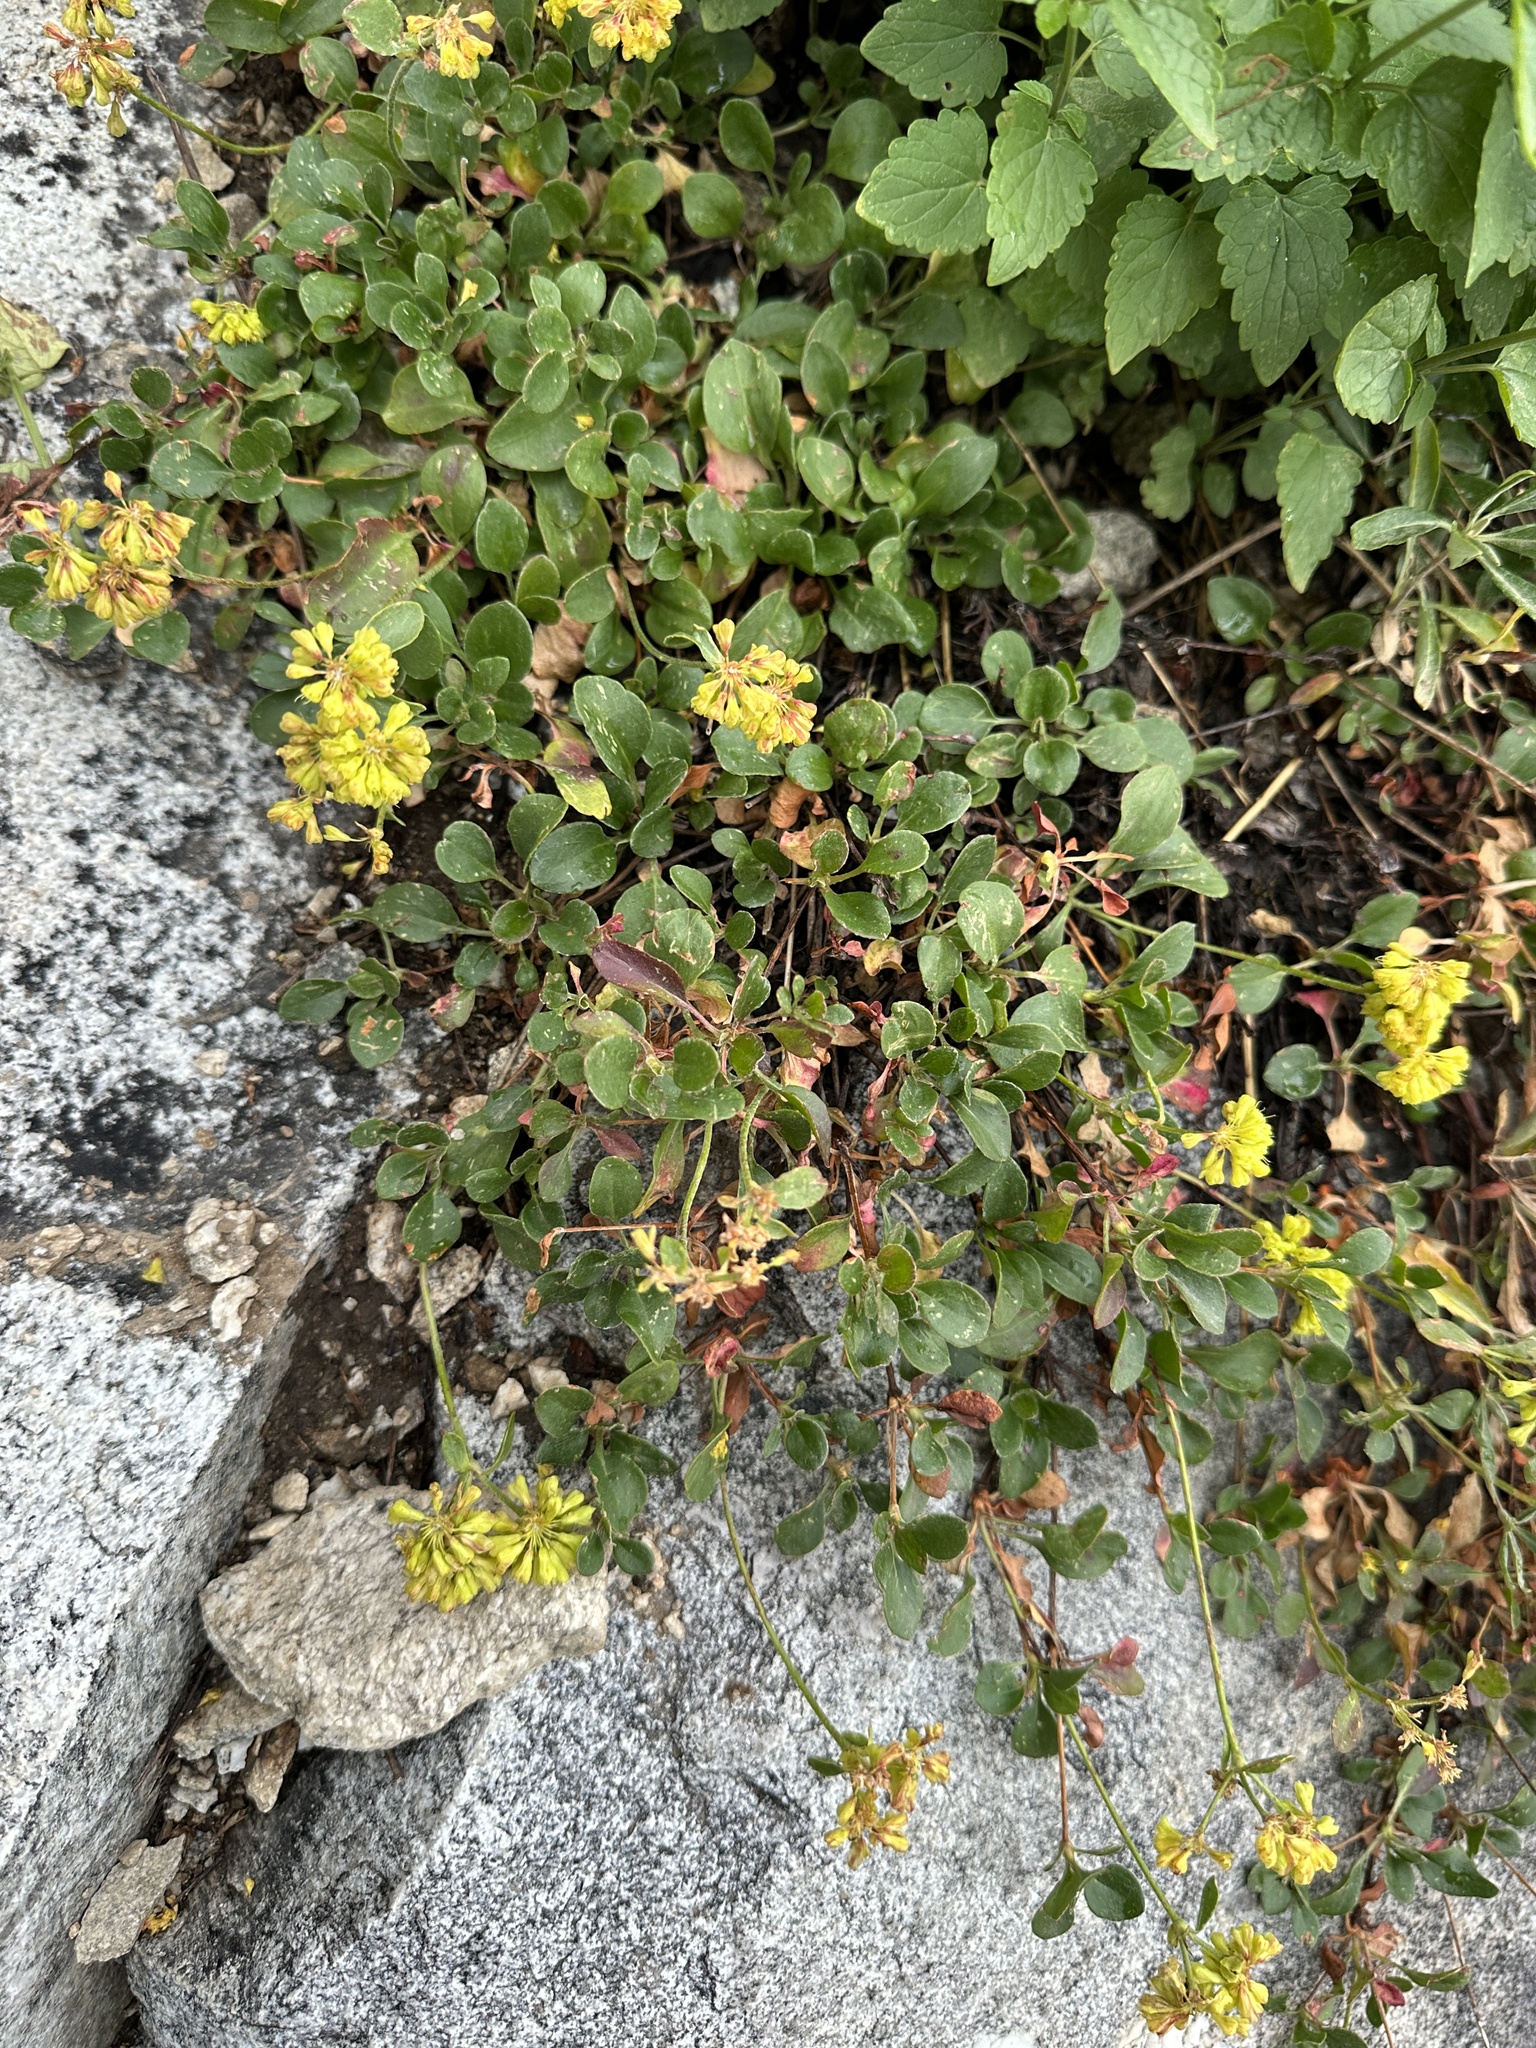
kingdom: Plantae
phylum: Tracheophyta
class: Magnoliopsida
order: Caryophyllales
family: Polygonaceae
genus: Eriogonum
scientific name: Eriogonum umbellatum
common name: Sulfur-buckwheat
